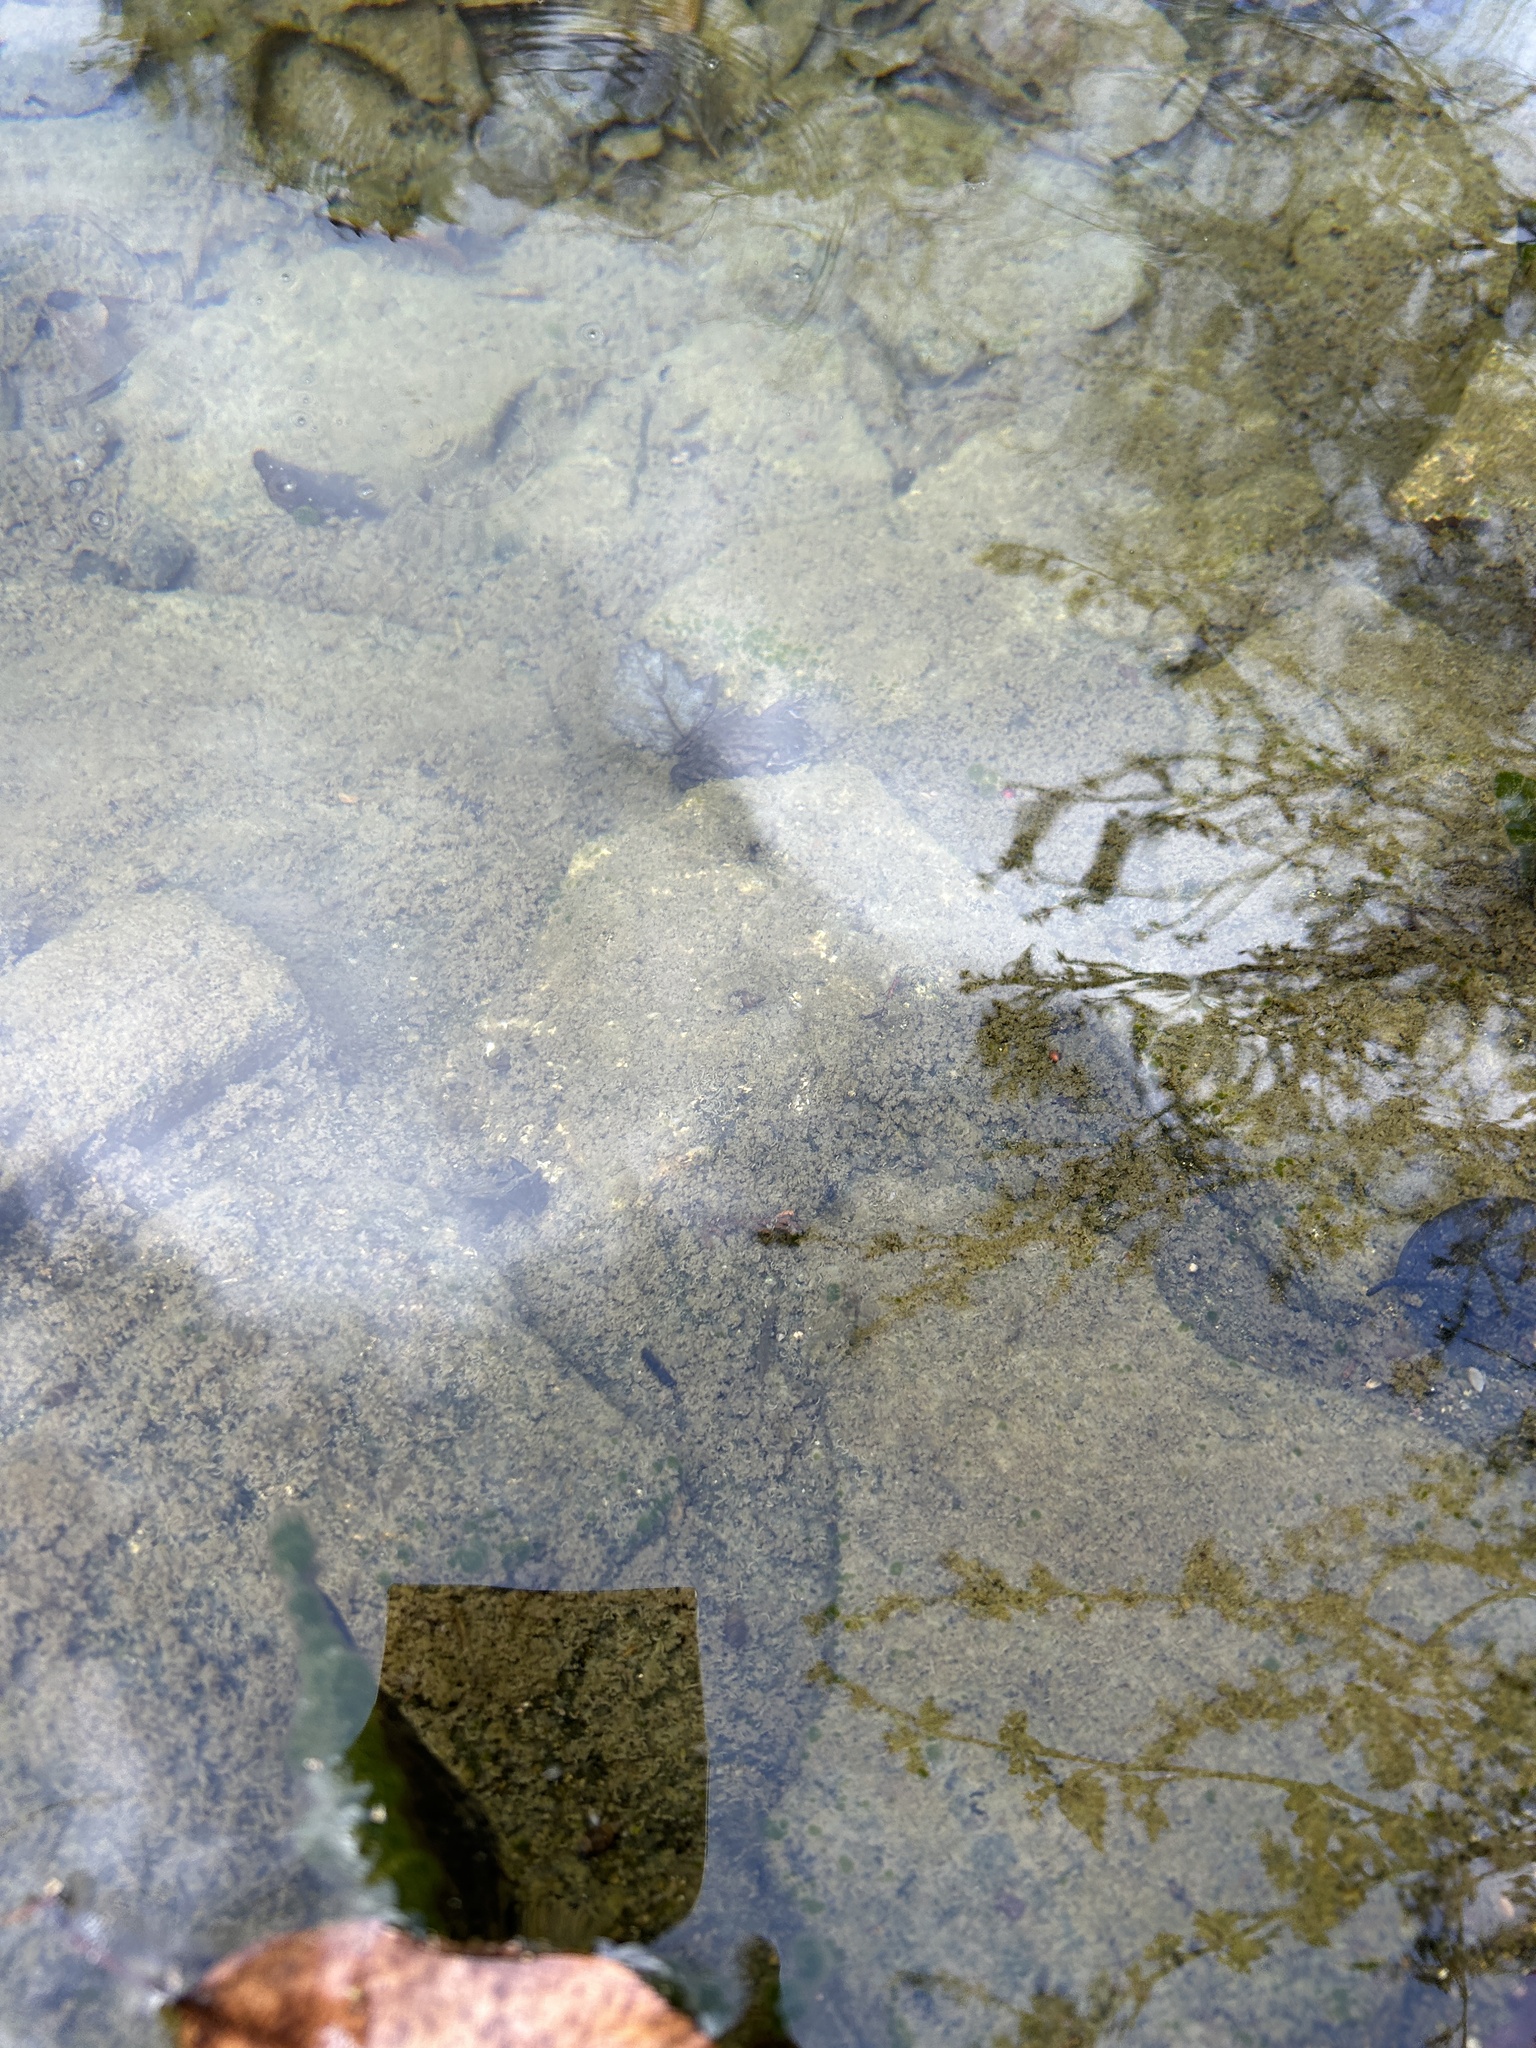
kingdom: Animalia
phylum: Chordata
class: Amphibia
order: Anura
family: Ranidae
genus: Lithobates
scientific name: Lithobates clamitans
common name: Green frog
